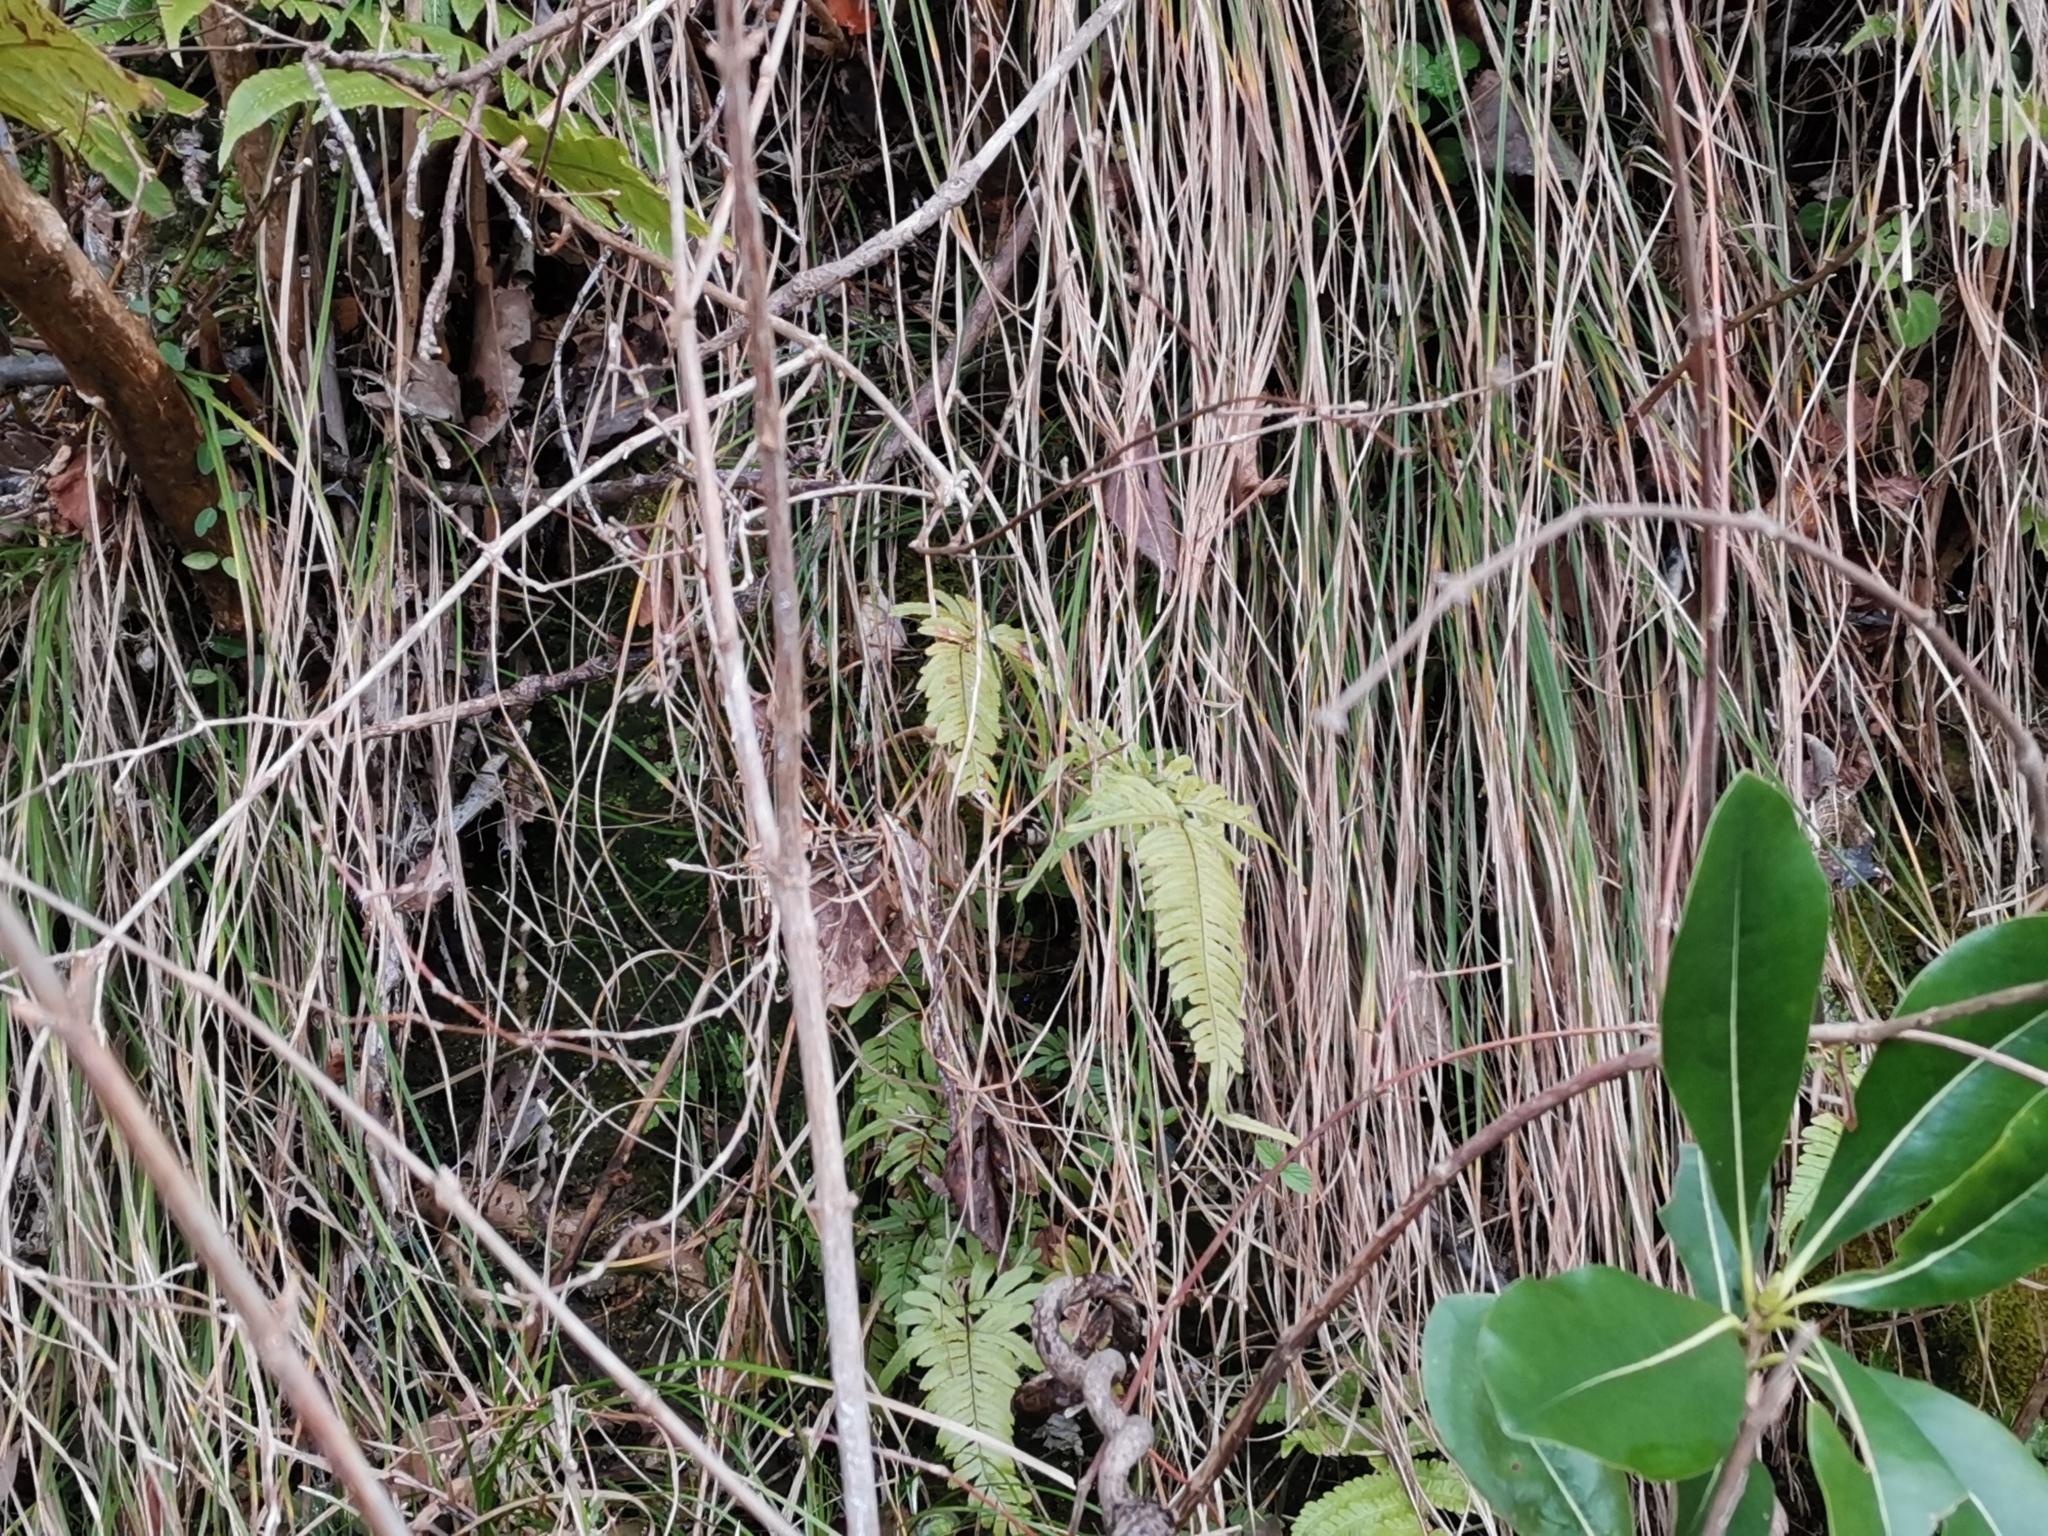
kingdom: Plantae
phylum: Tracheophyta
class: Polypodiopsida
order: Polypodiales
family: Pteridaceae
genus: Pteris
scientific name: Pteris dispar
